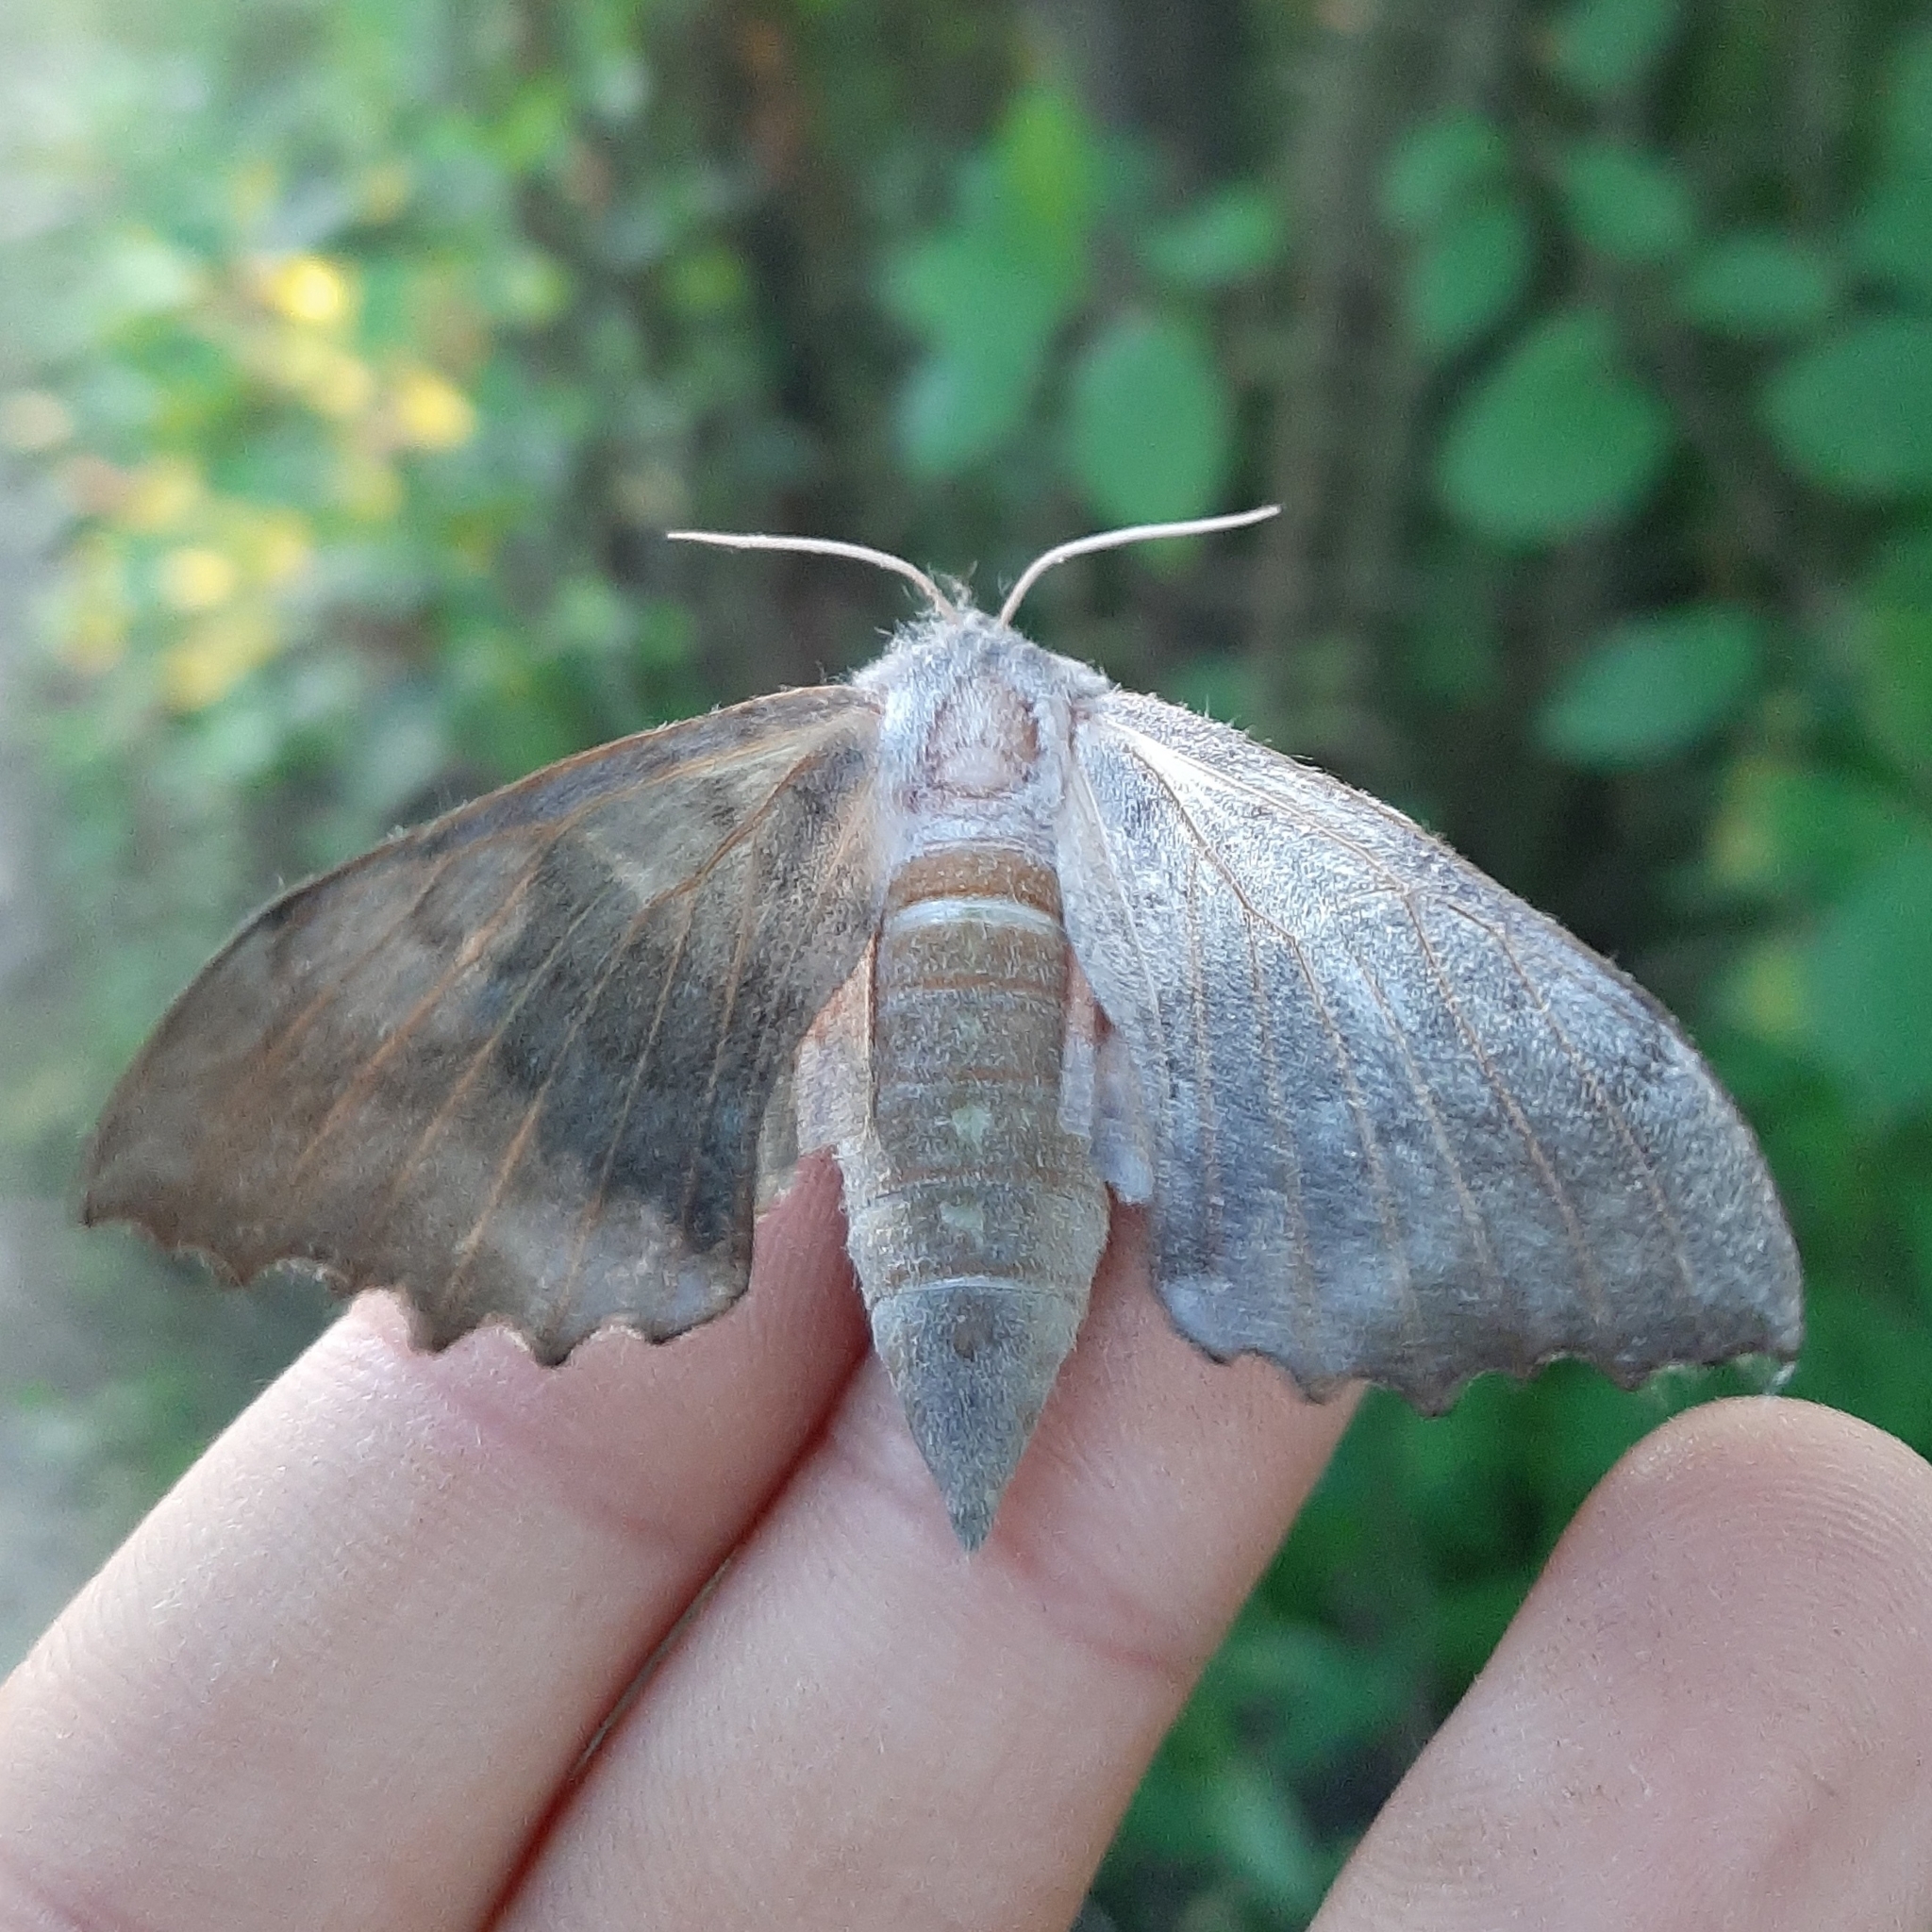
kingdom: Animalia
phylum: Arthropoda
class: Insecta
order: Lepidoptera
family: Sphingidae
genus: Laothoe
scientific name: Laothoe populi
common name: Poplar hawk-moth
